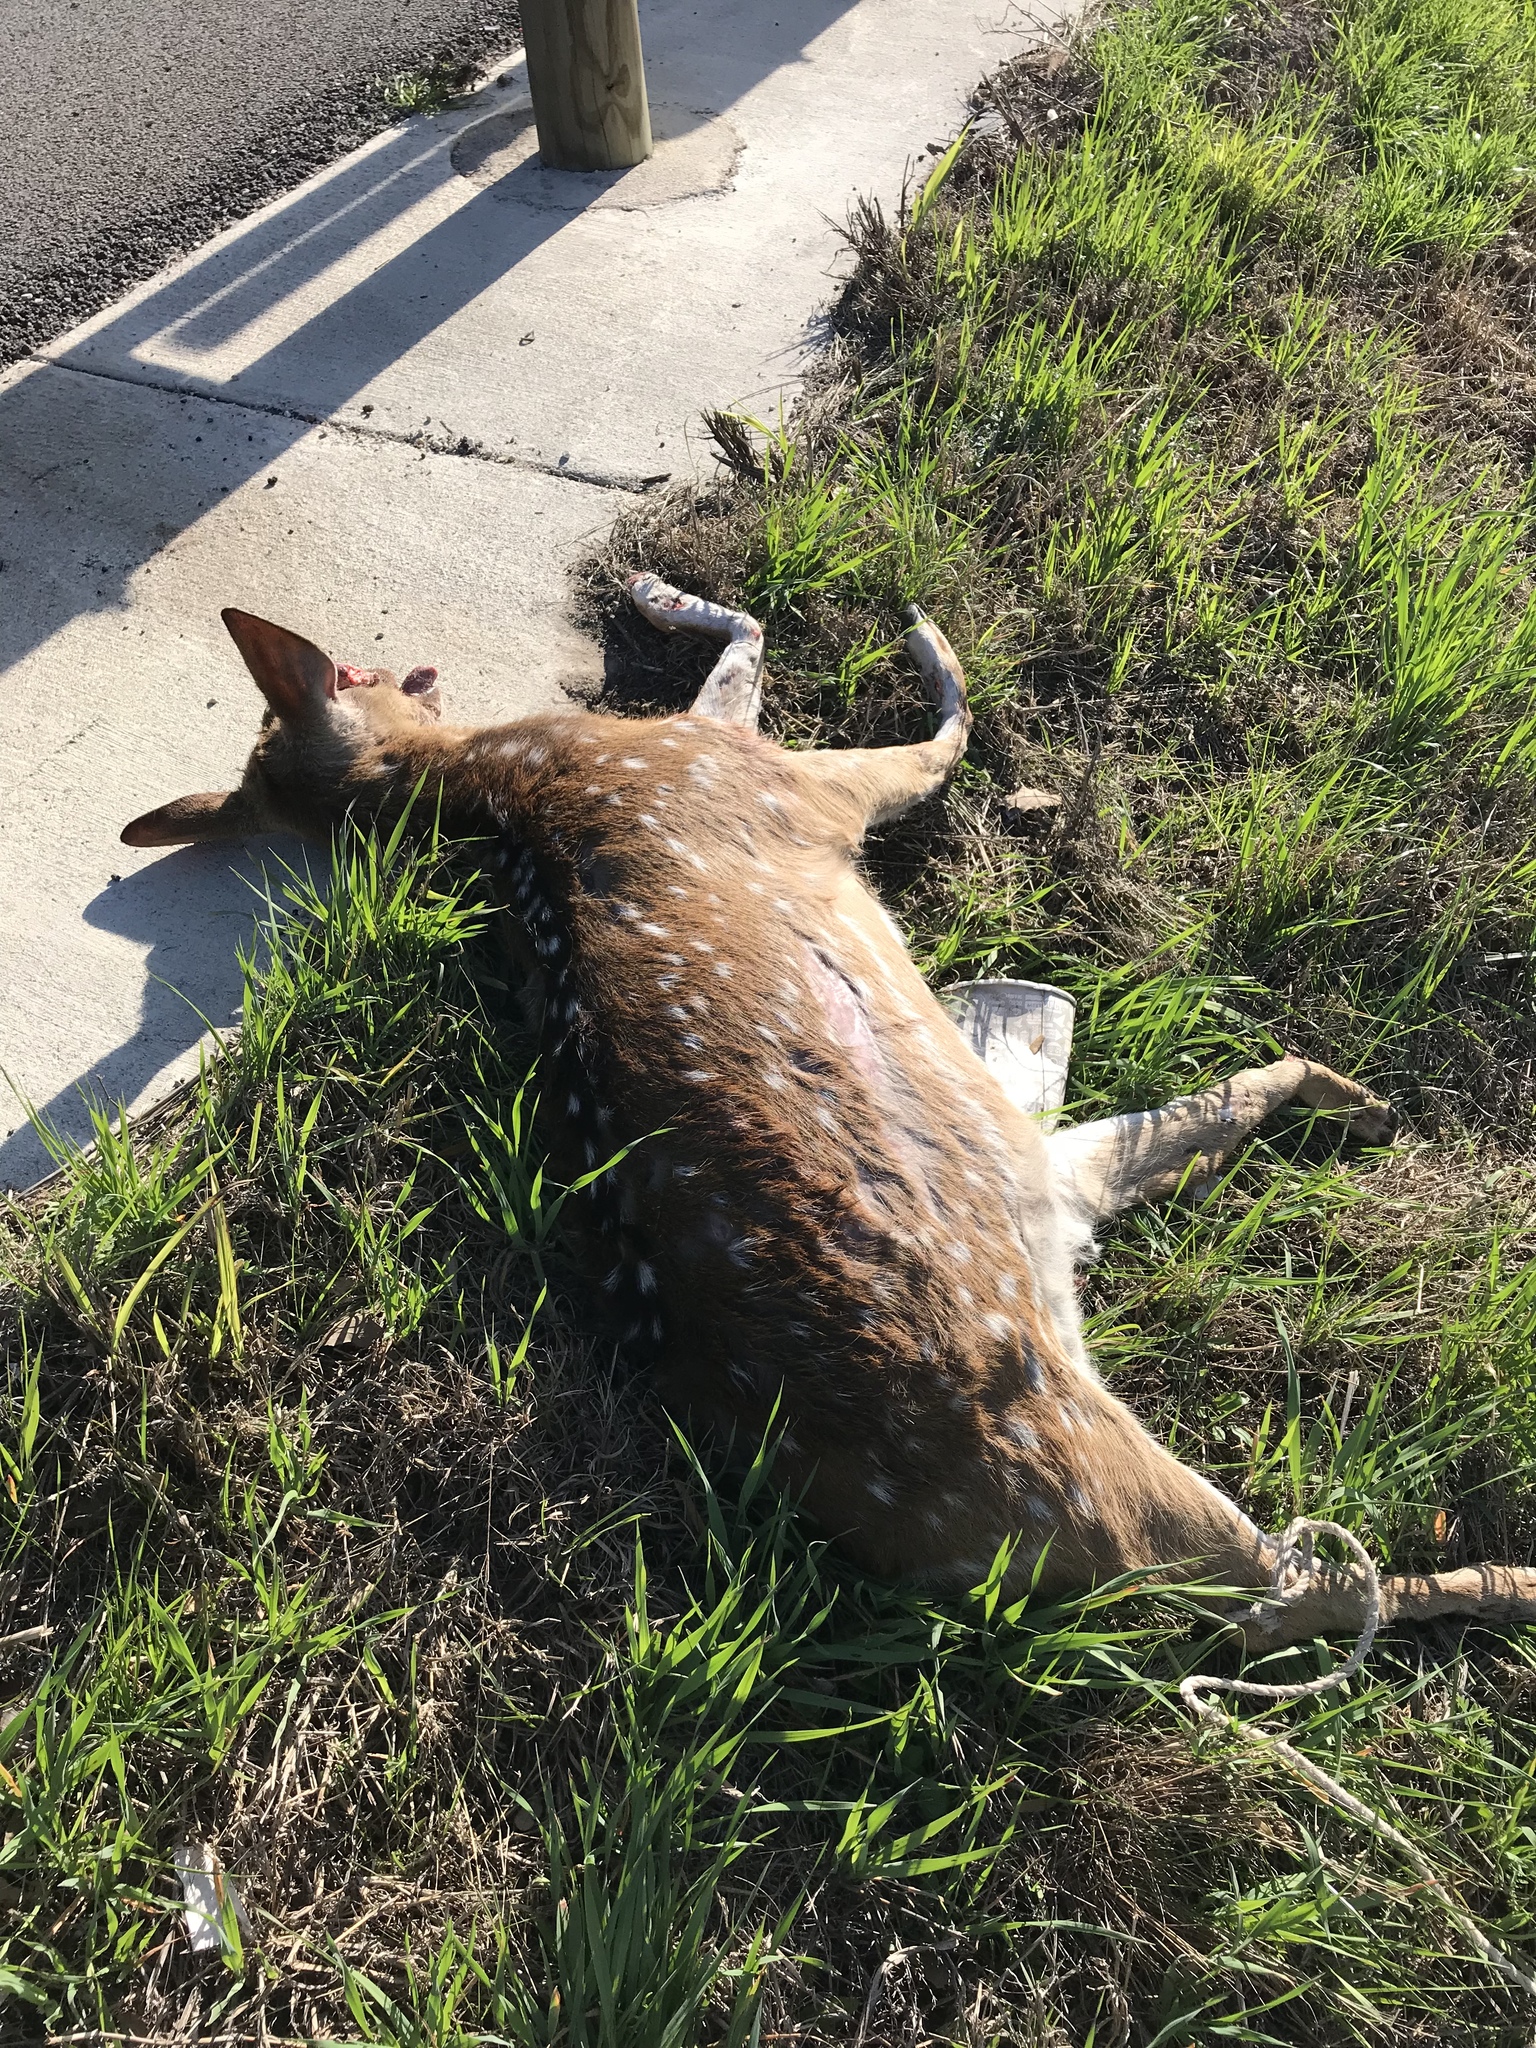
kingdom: Animalia
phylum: Chordata
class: Mammalia
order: Artiodactyla
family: Cervidae
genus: Axis
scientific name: Axis axis
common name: Chital
